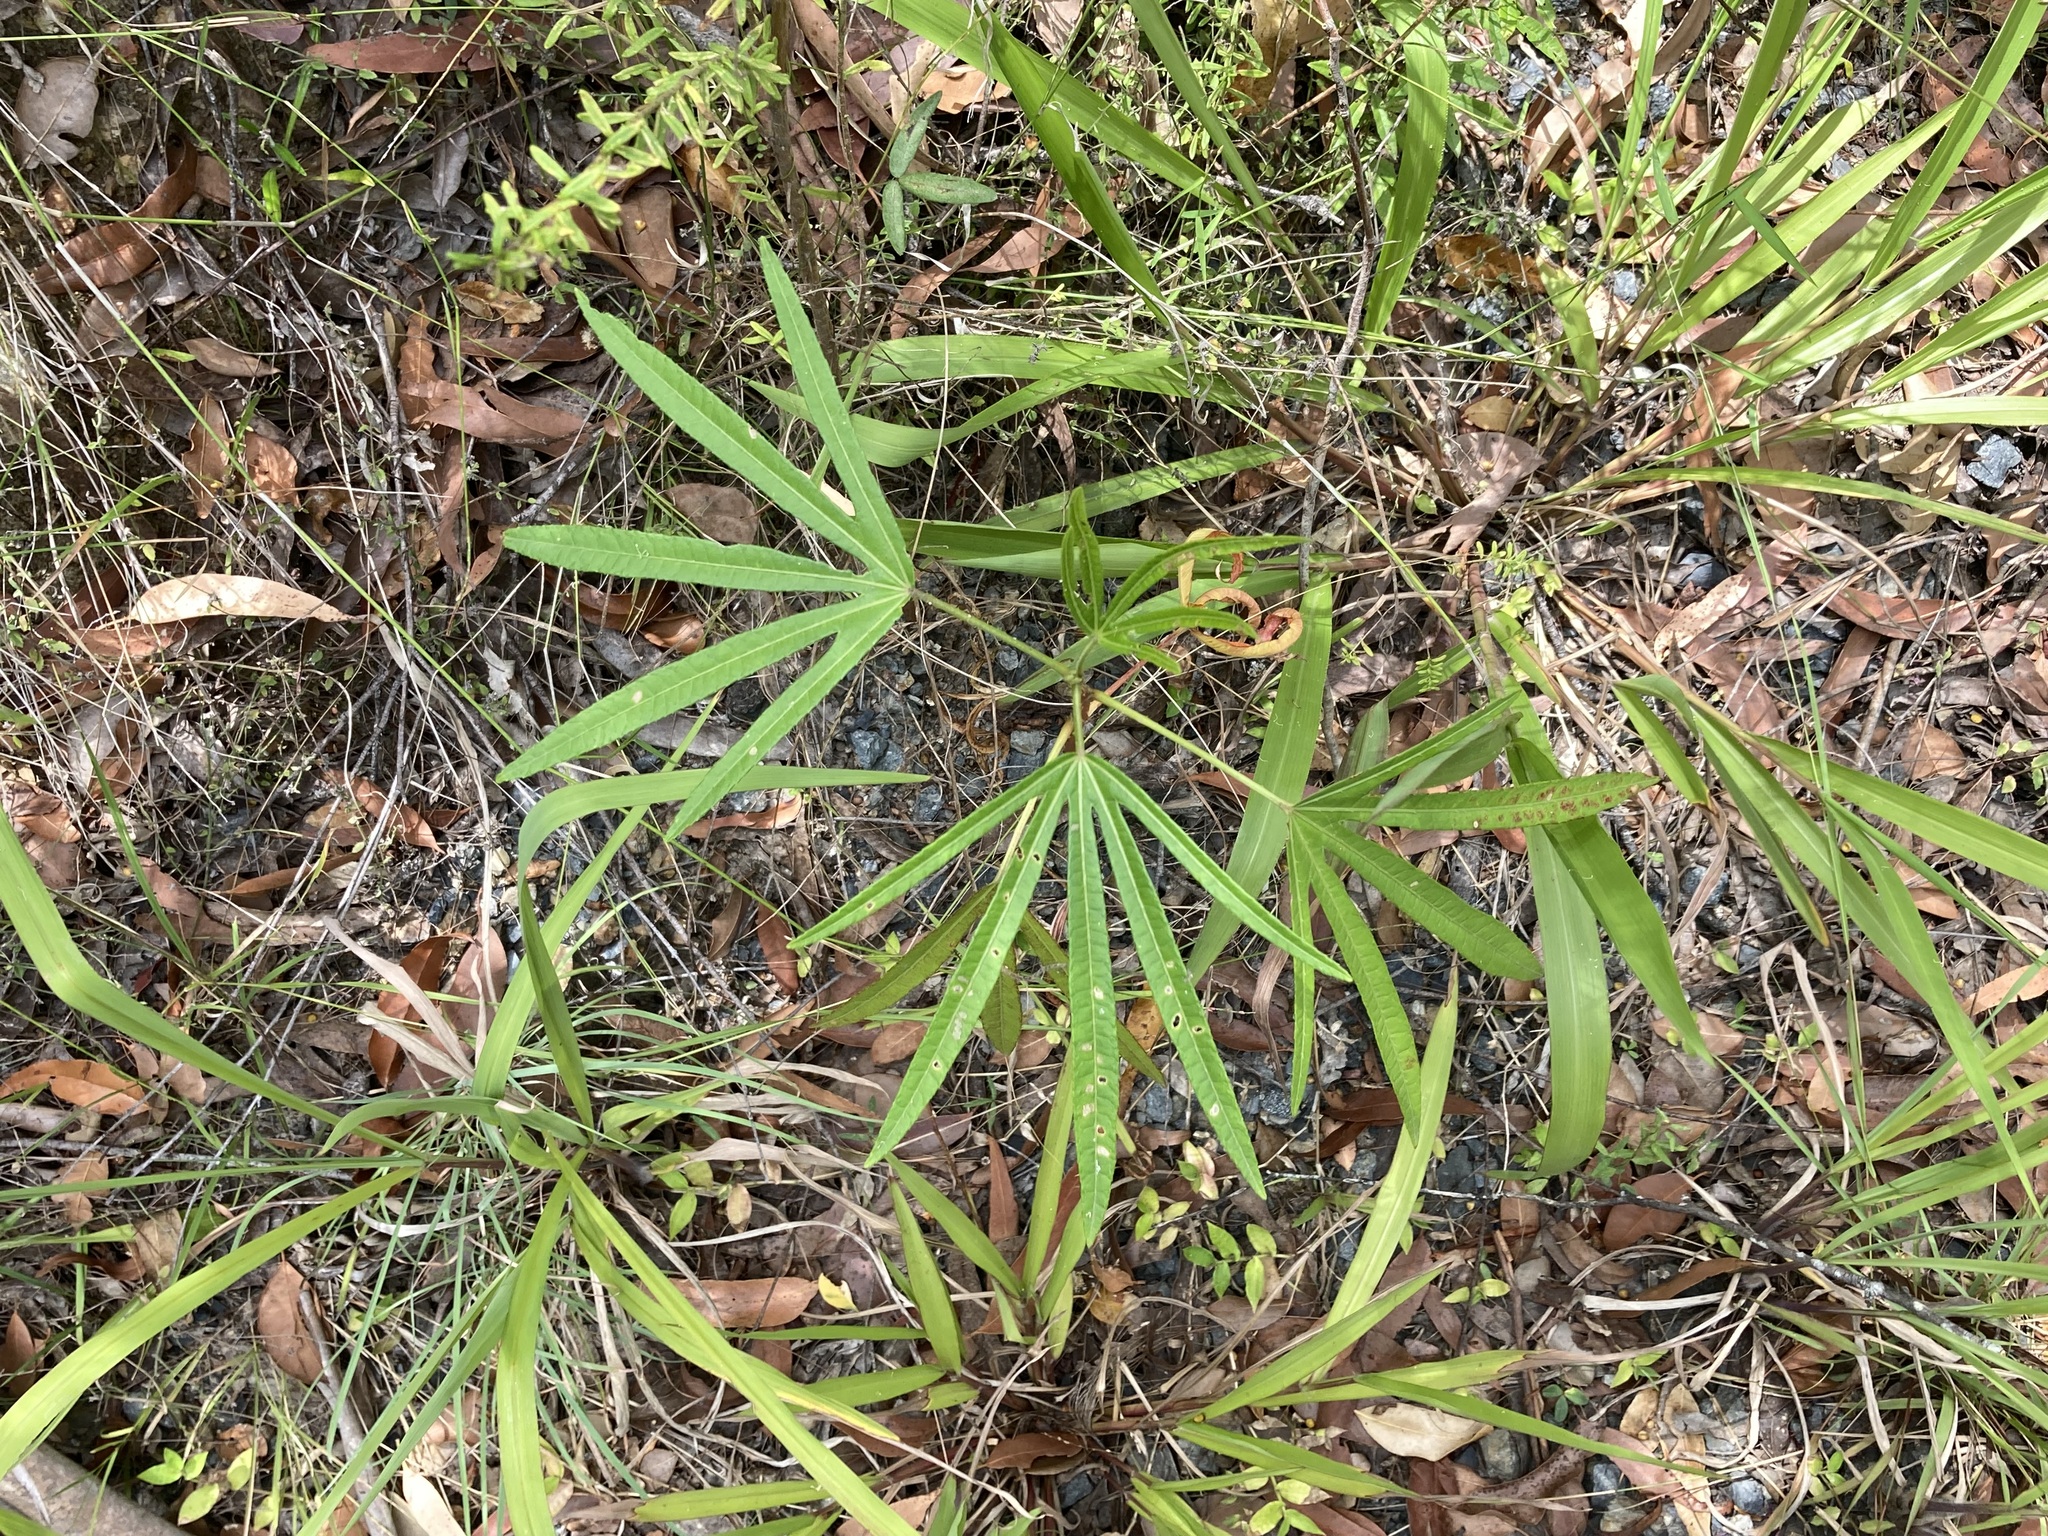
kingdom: Plantae
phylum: Tracheophyta
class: Magnoliopsida
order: Malvales
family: Malvaceae
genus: Hibiscus
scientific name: Hibiscus heterophyllus
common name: Queensland-sorrel
